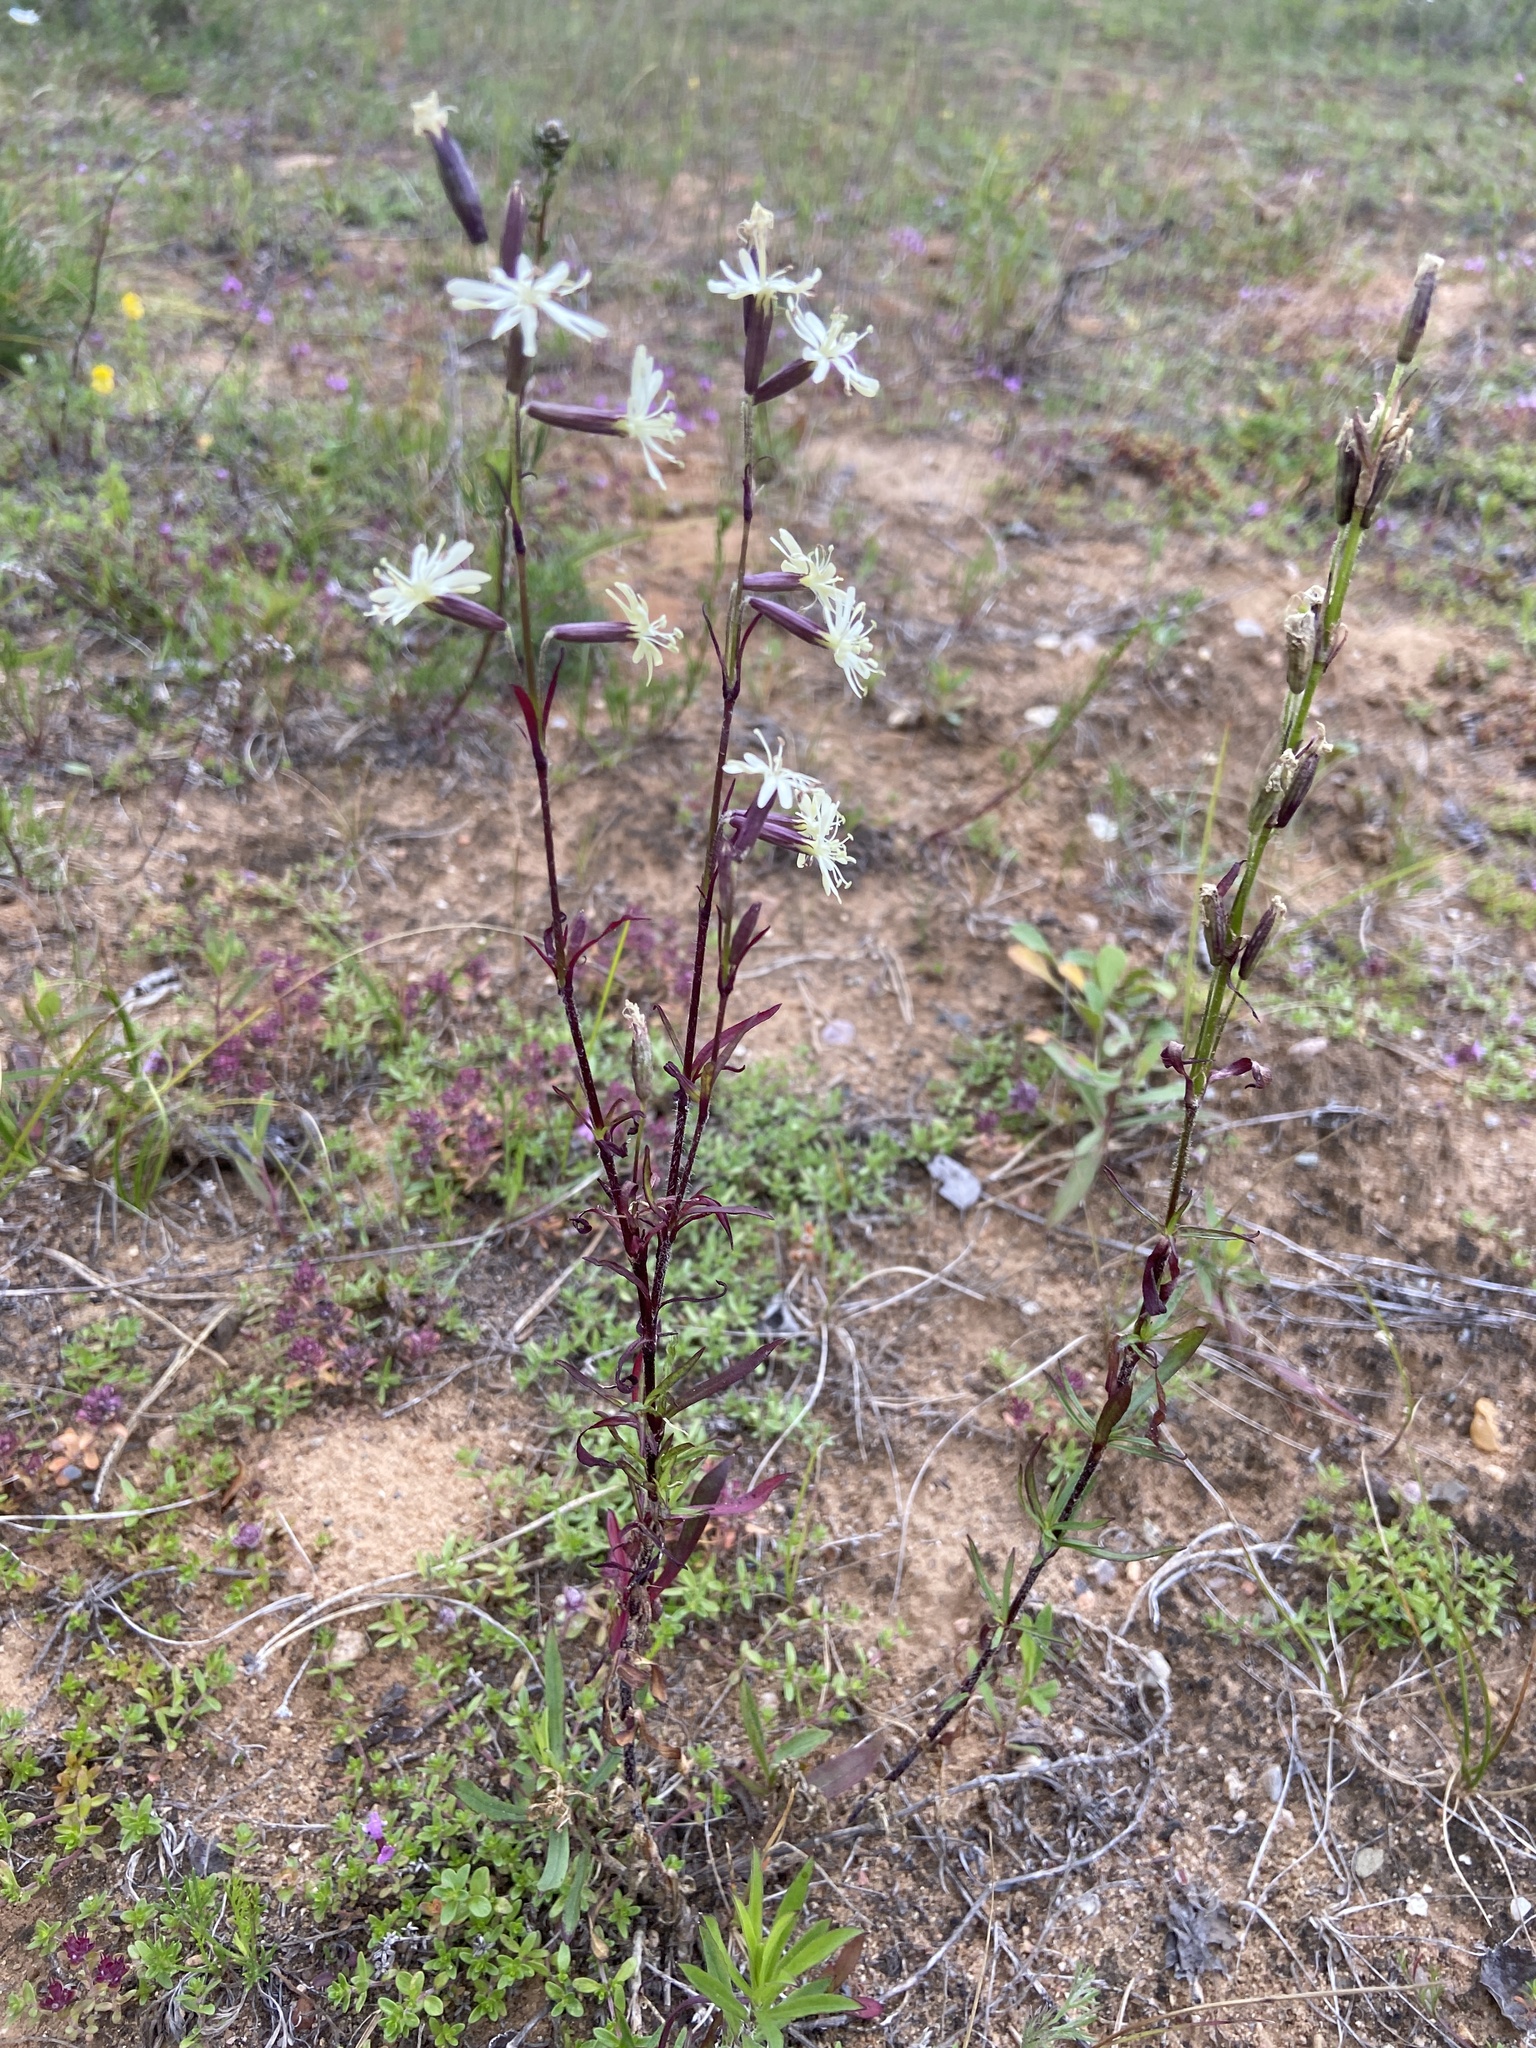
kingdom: Plantae
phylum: Tracheophyta
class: Magnoliopsida
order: Caryophyllales
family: Caryophyllaceae
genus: Silene
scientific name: Silene tatarica
